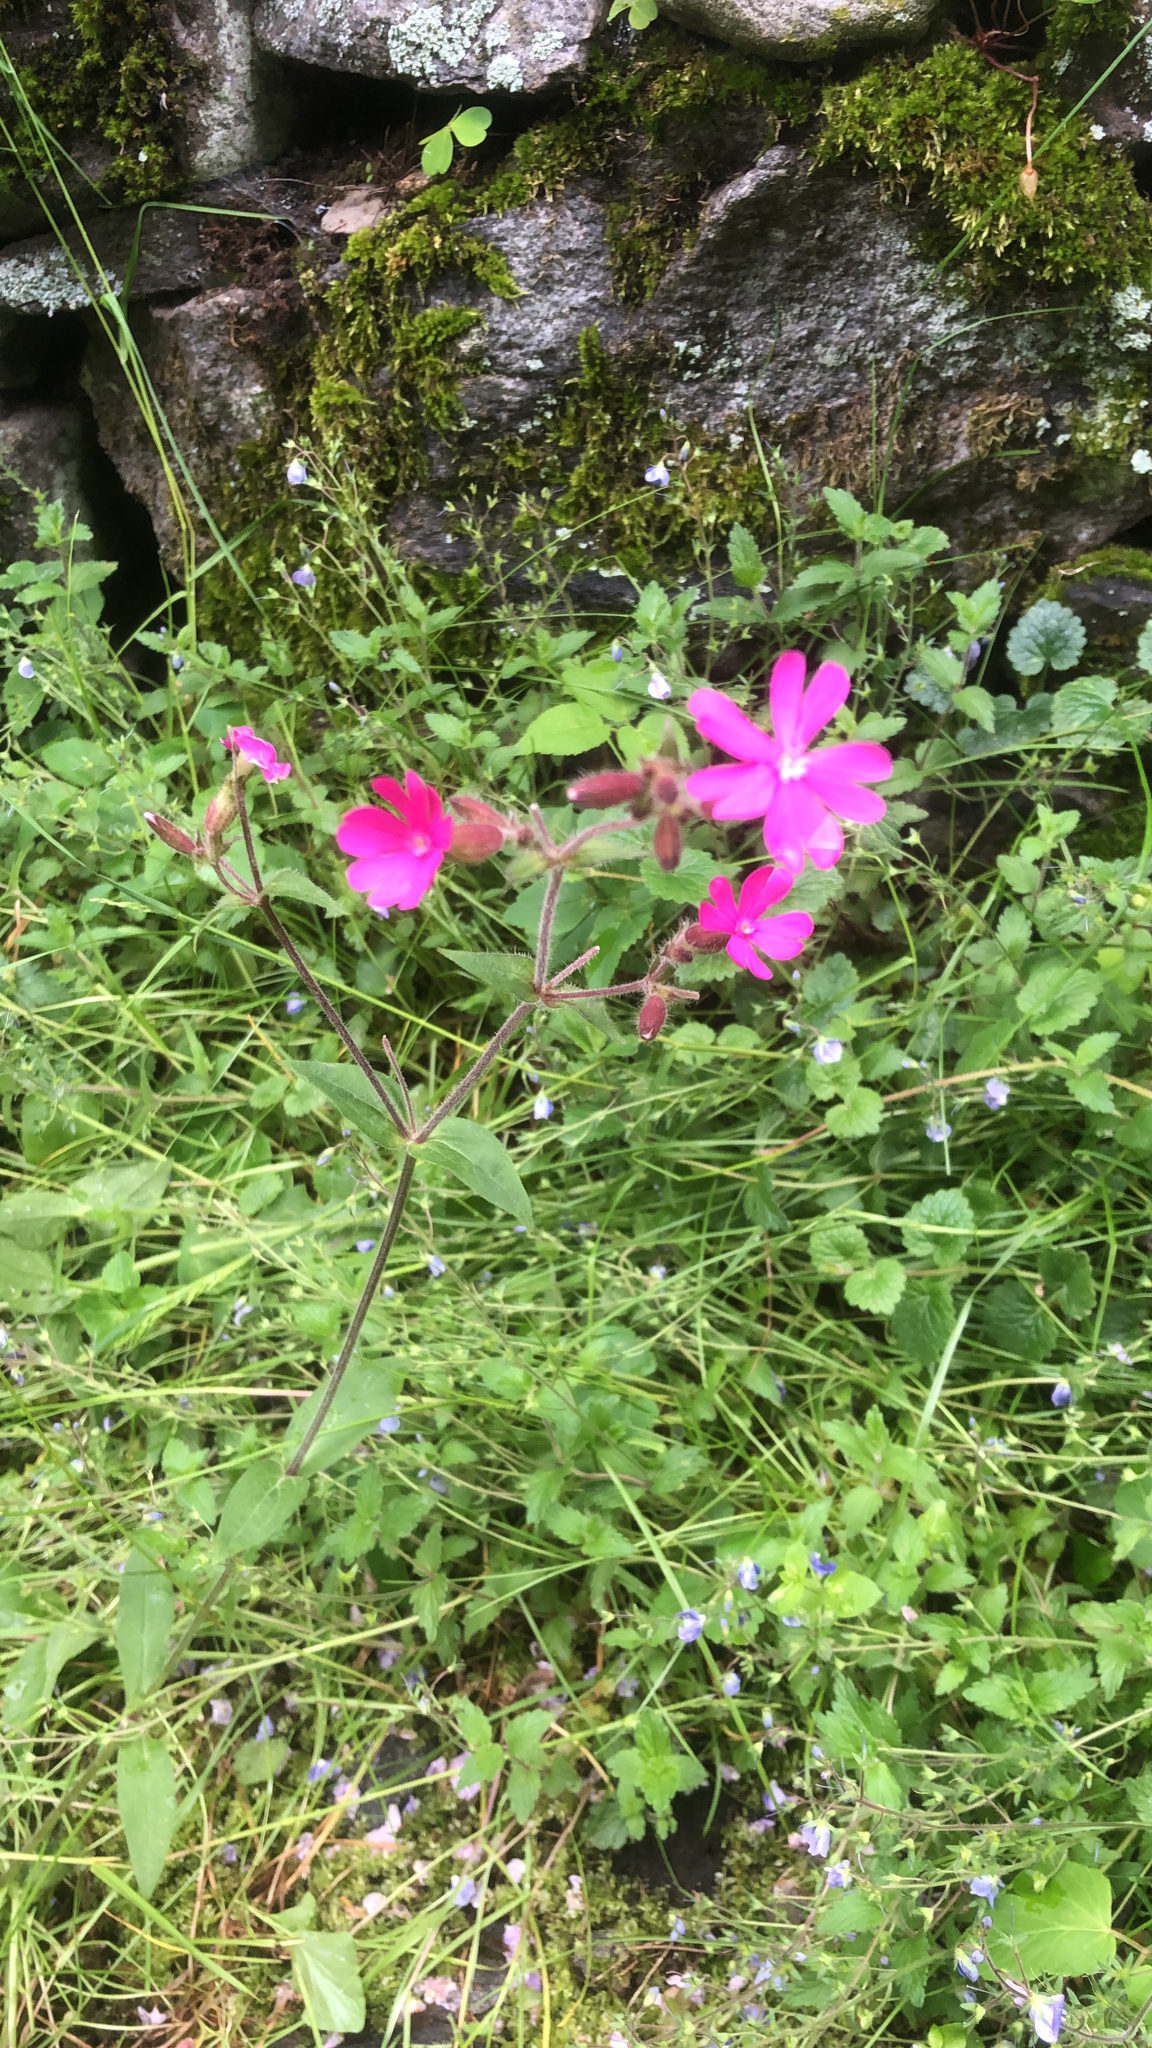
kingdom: Plantae
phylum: Tracheophyta
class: Magnoliopsida
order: Caryophyllales
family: Caryophyllaceae
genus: Silene
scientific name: Silene dioica
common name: Red campion
